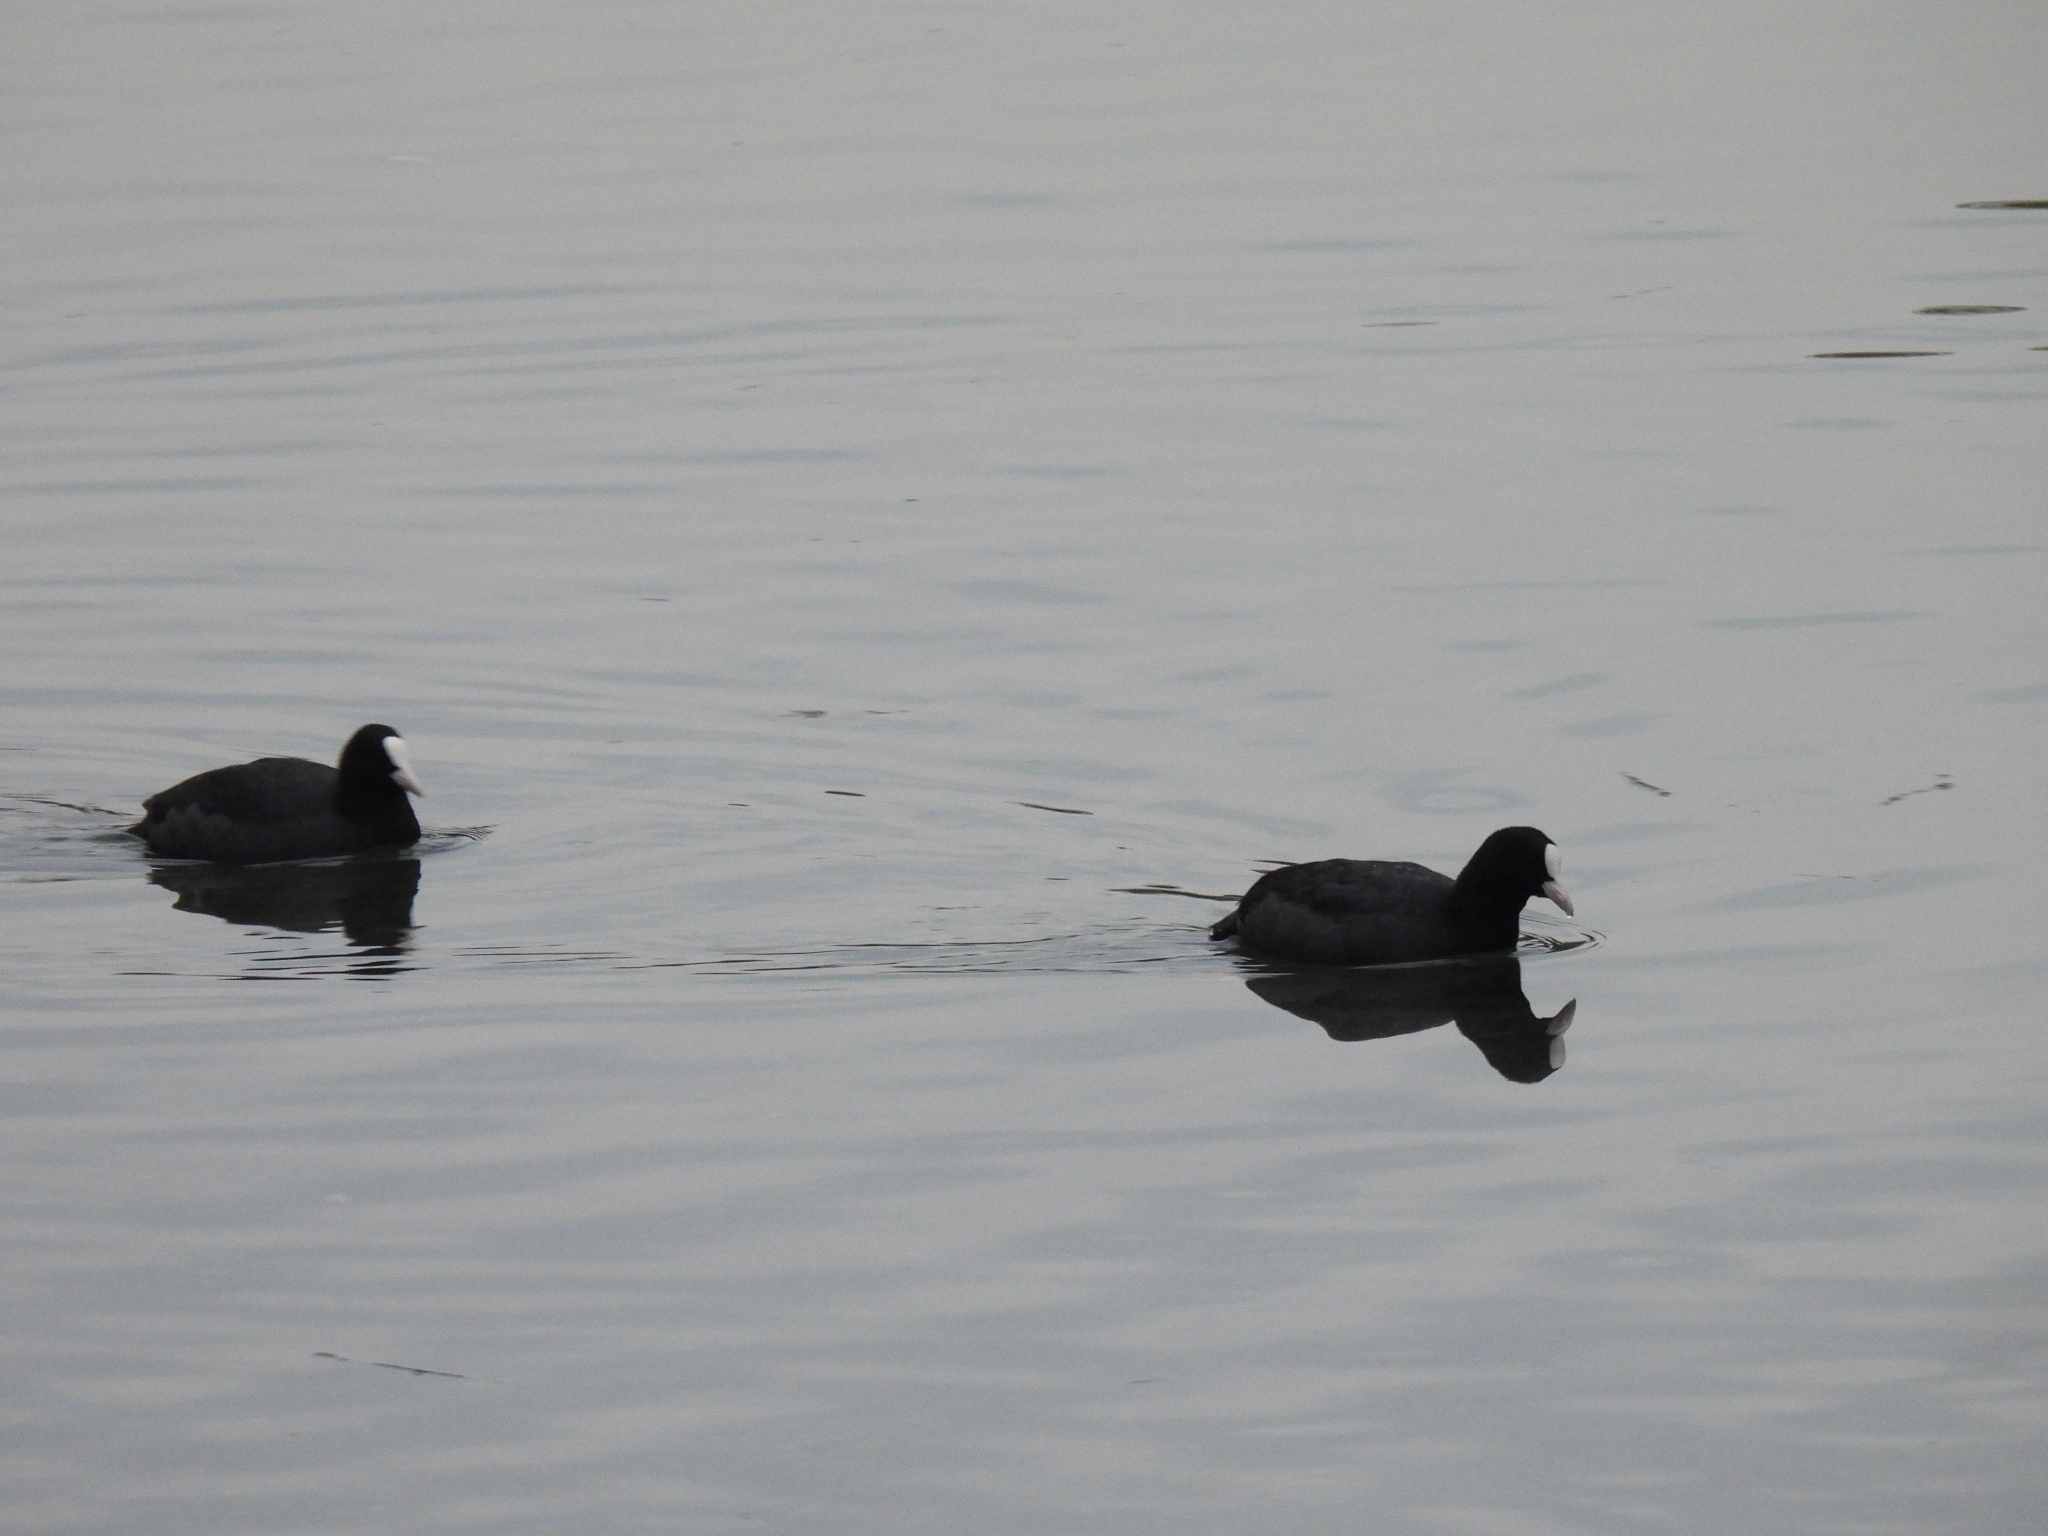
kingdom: Animalia
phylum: Chordata
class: Aves
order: Gruiformes
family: Rallidae
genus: Fulica
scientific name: Fulica atra
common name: Eurasian coot
